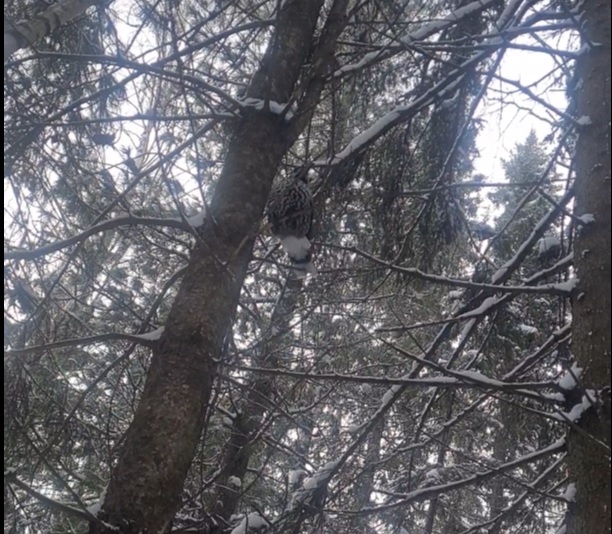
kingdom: Animalia
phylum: Chordata
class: Aves
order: Passeriformes
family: Corvidae
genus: Nucifraga
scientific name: Nucifraga caryocatactes
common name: Spotted nutcracker
